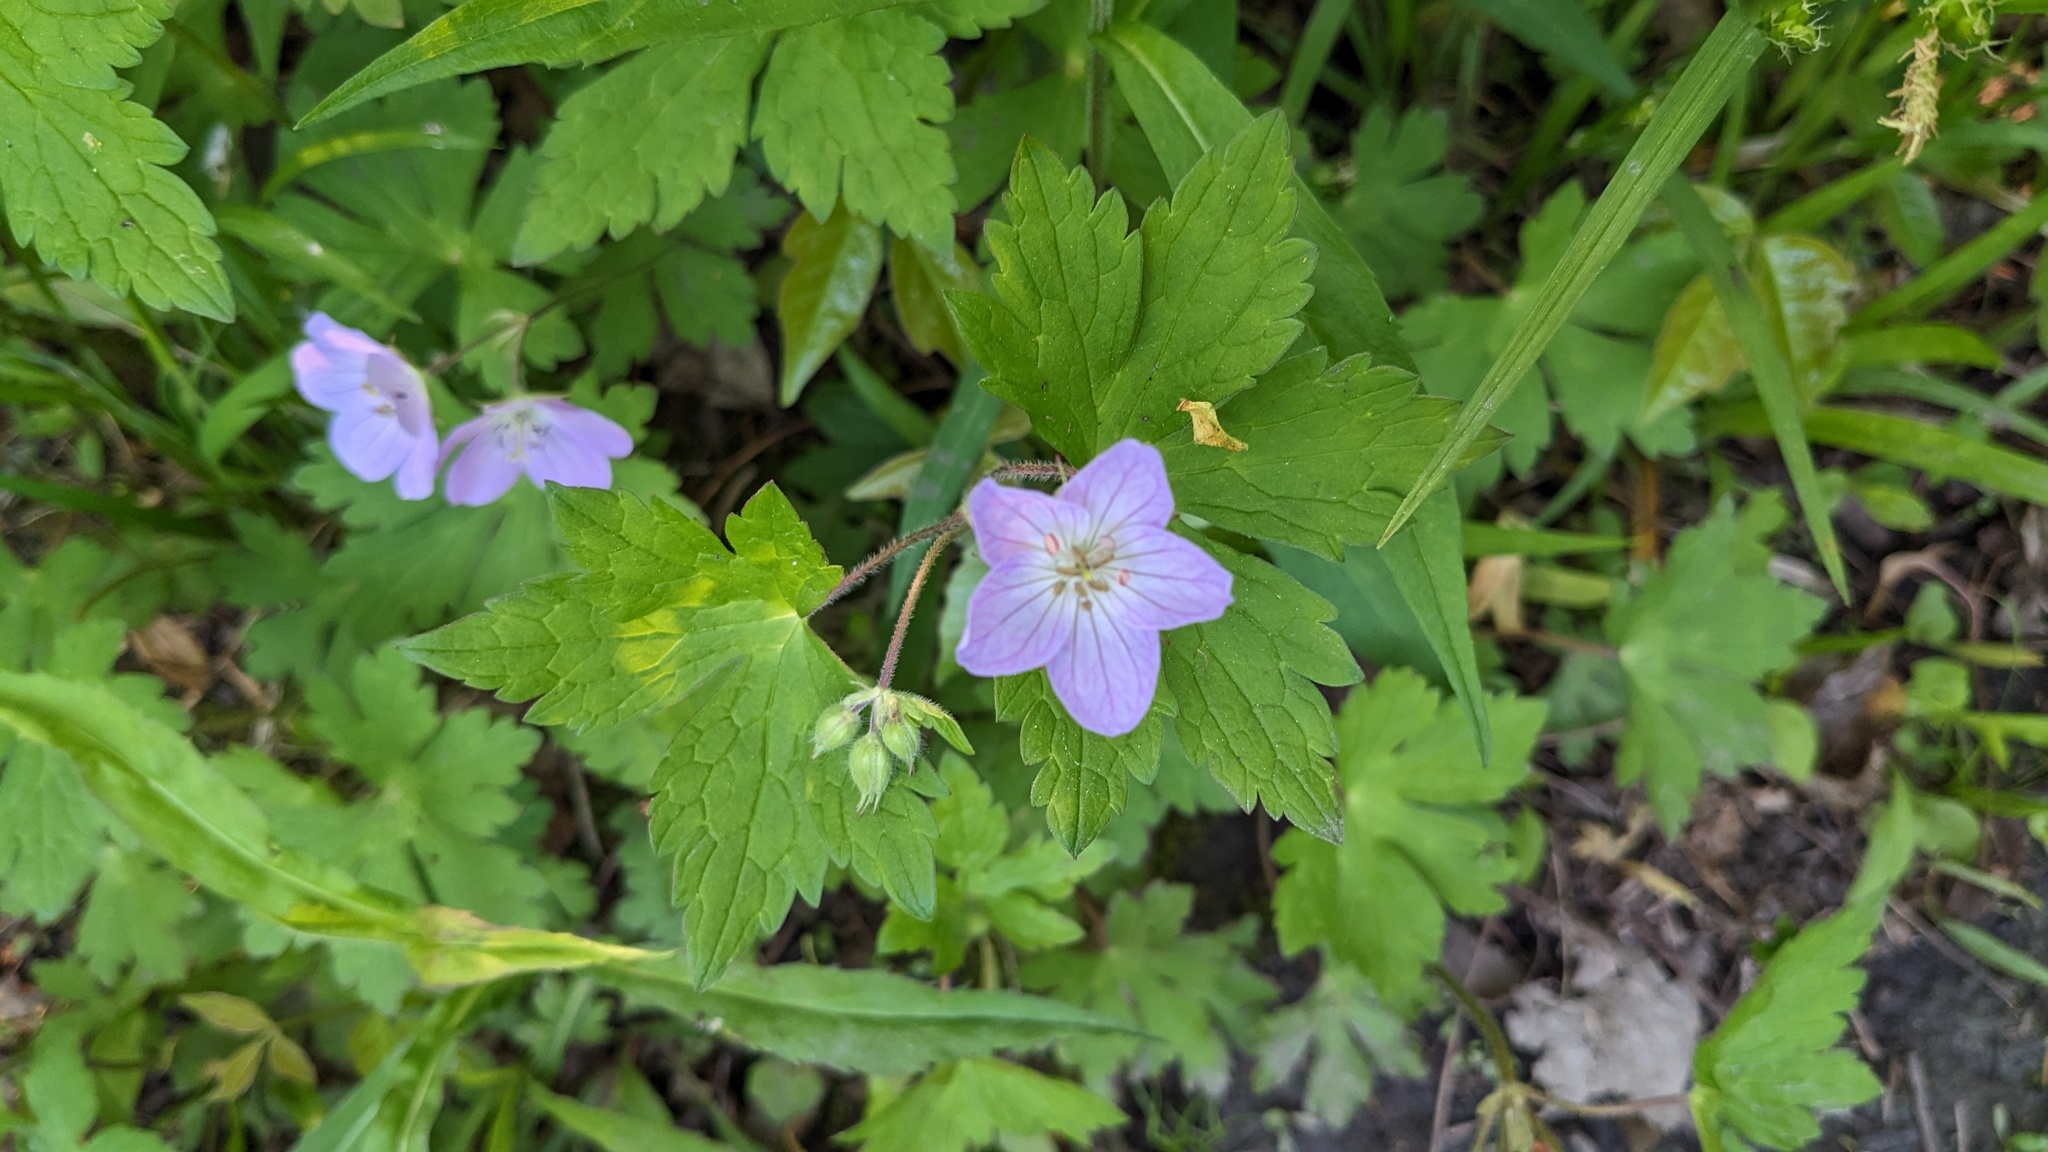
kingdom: Plantae
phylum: Tracheophyta
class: Magnoliopsida
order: Geraniales
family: Geraniaceae
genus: Geranium
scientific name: Geranium maculatum
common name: Spotted geranium
